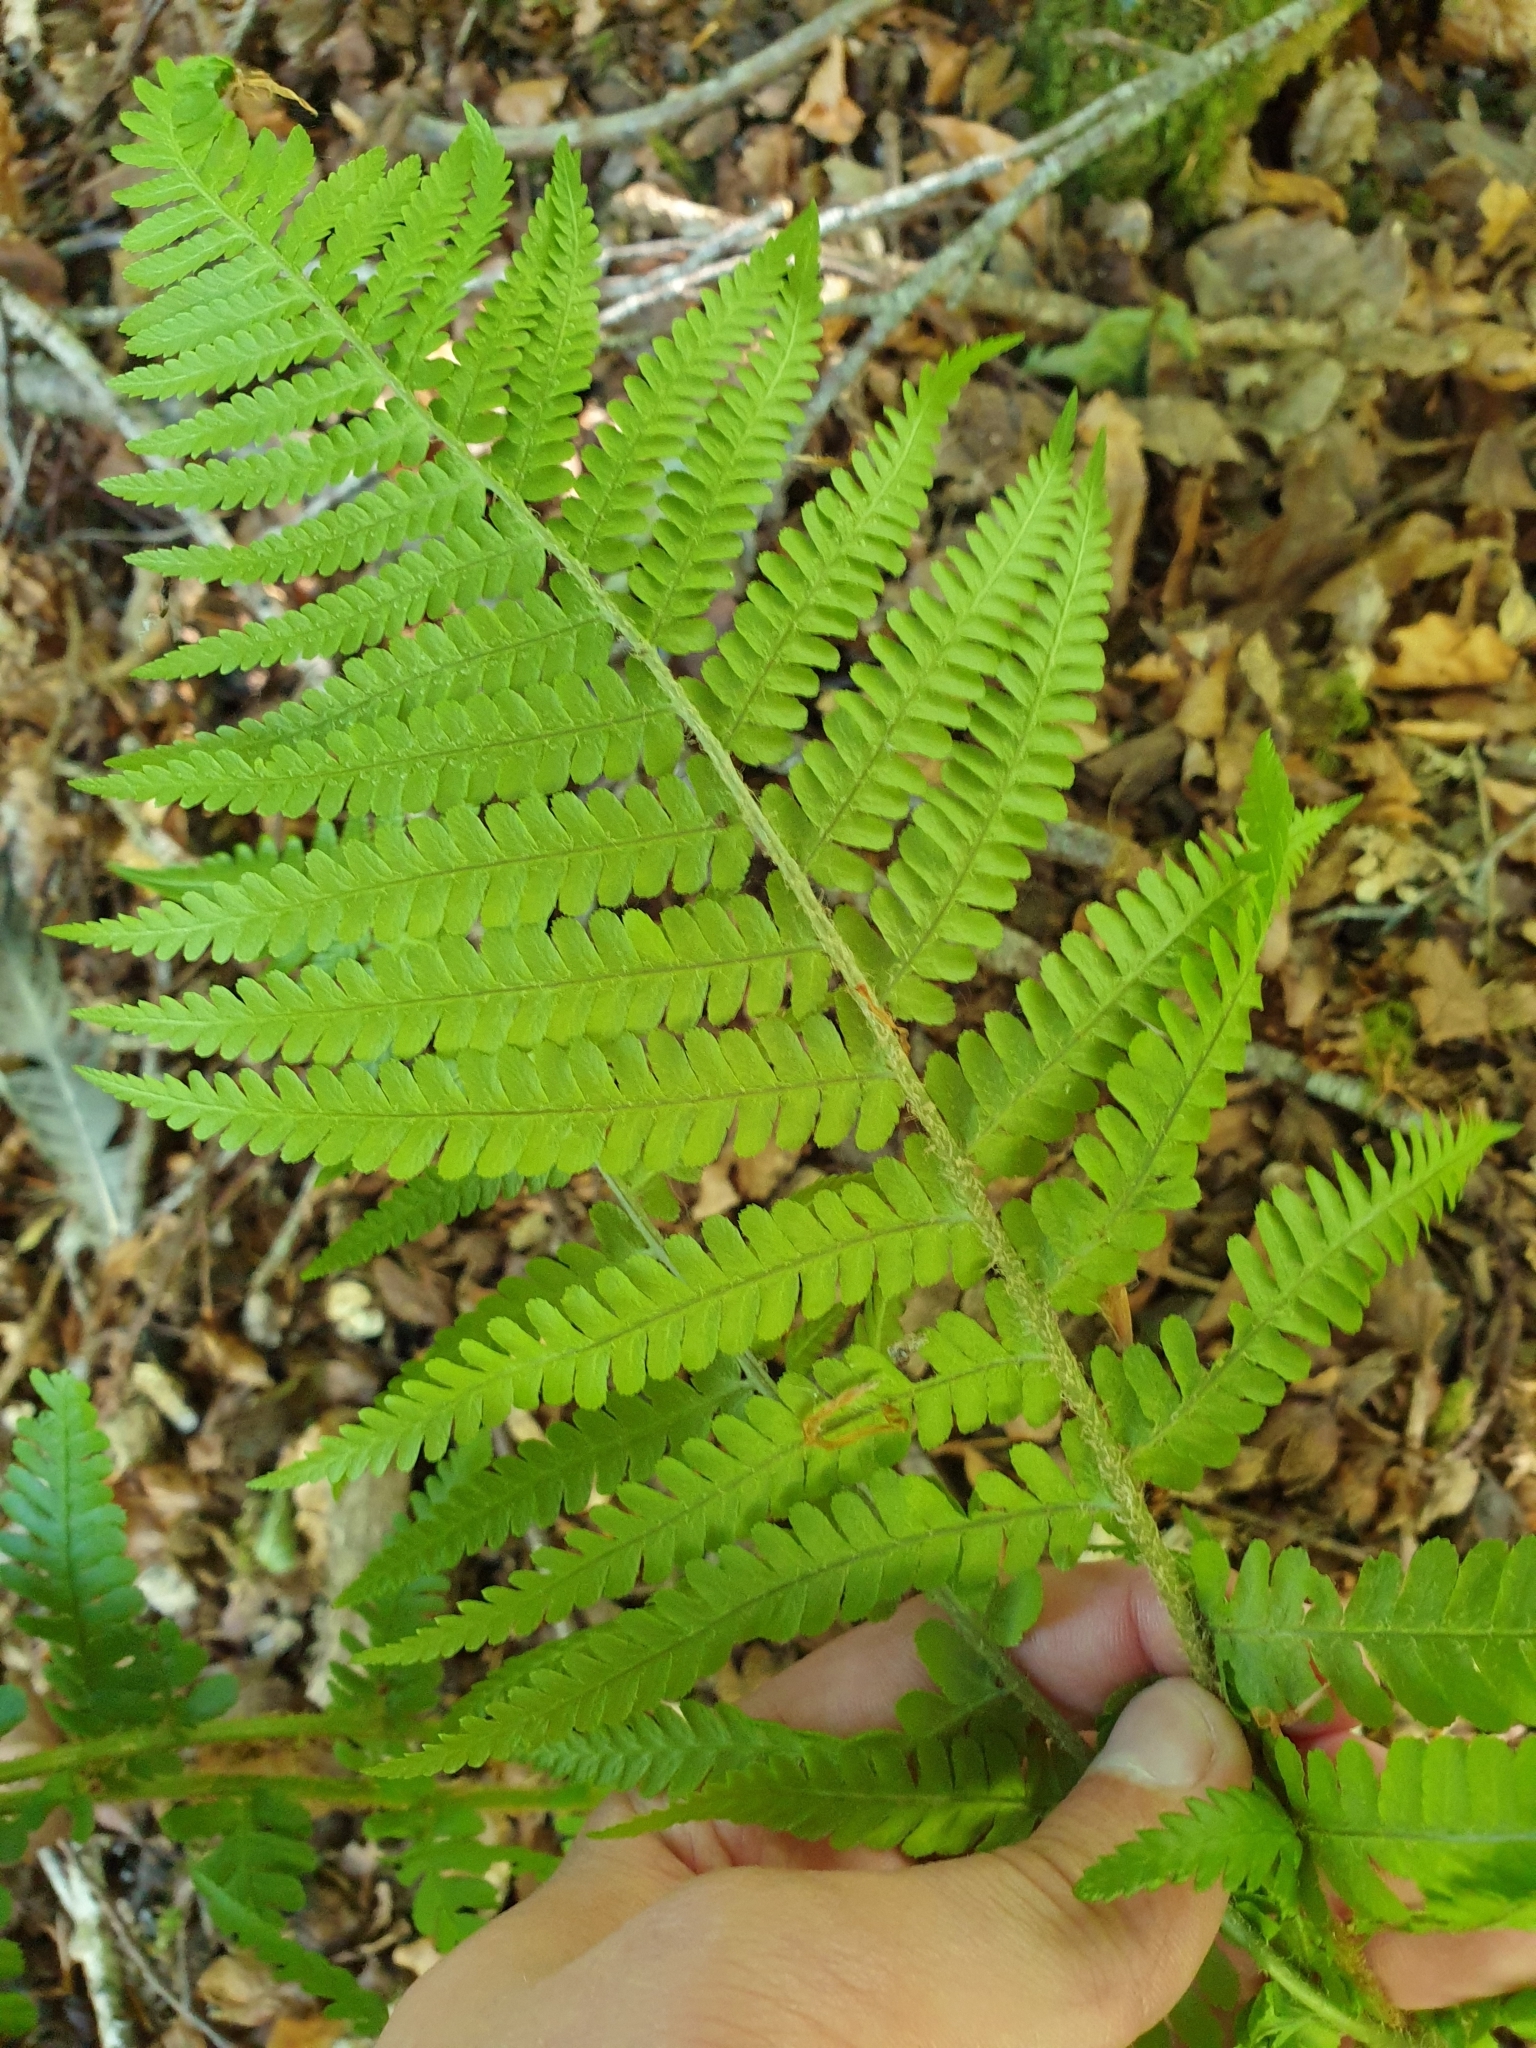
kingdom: Plantae
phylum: Tracheophyta
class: Polypodiopsida
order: Polypodiales
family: Dryopteridaceae
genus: Dryopteris
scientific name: Dryopteris filix-mas
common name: Male fern
